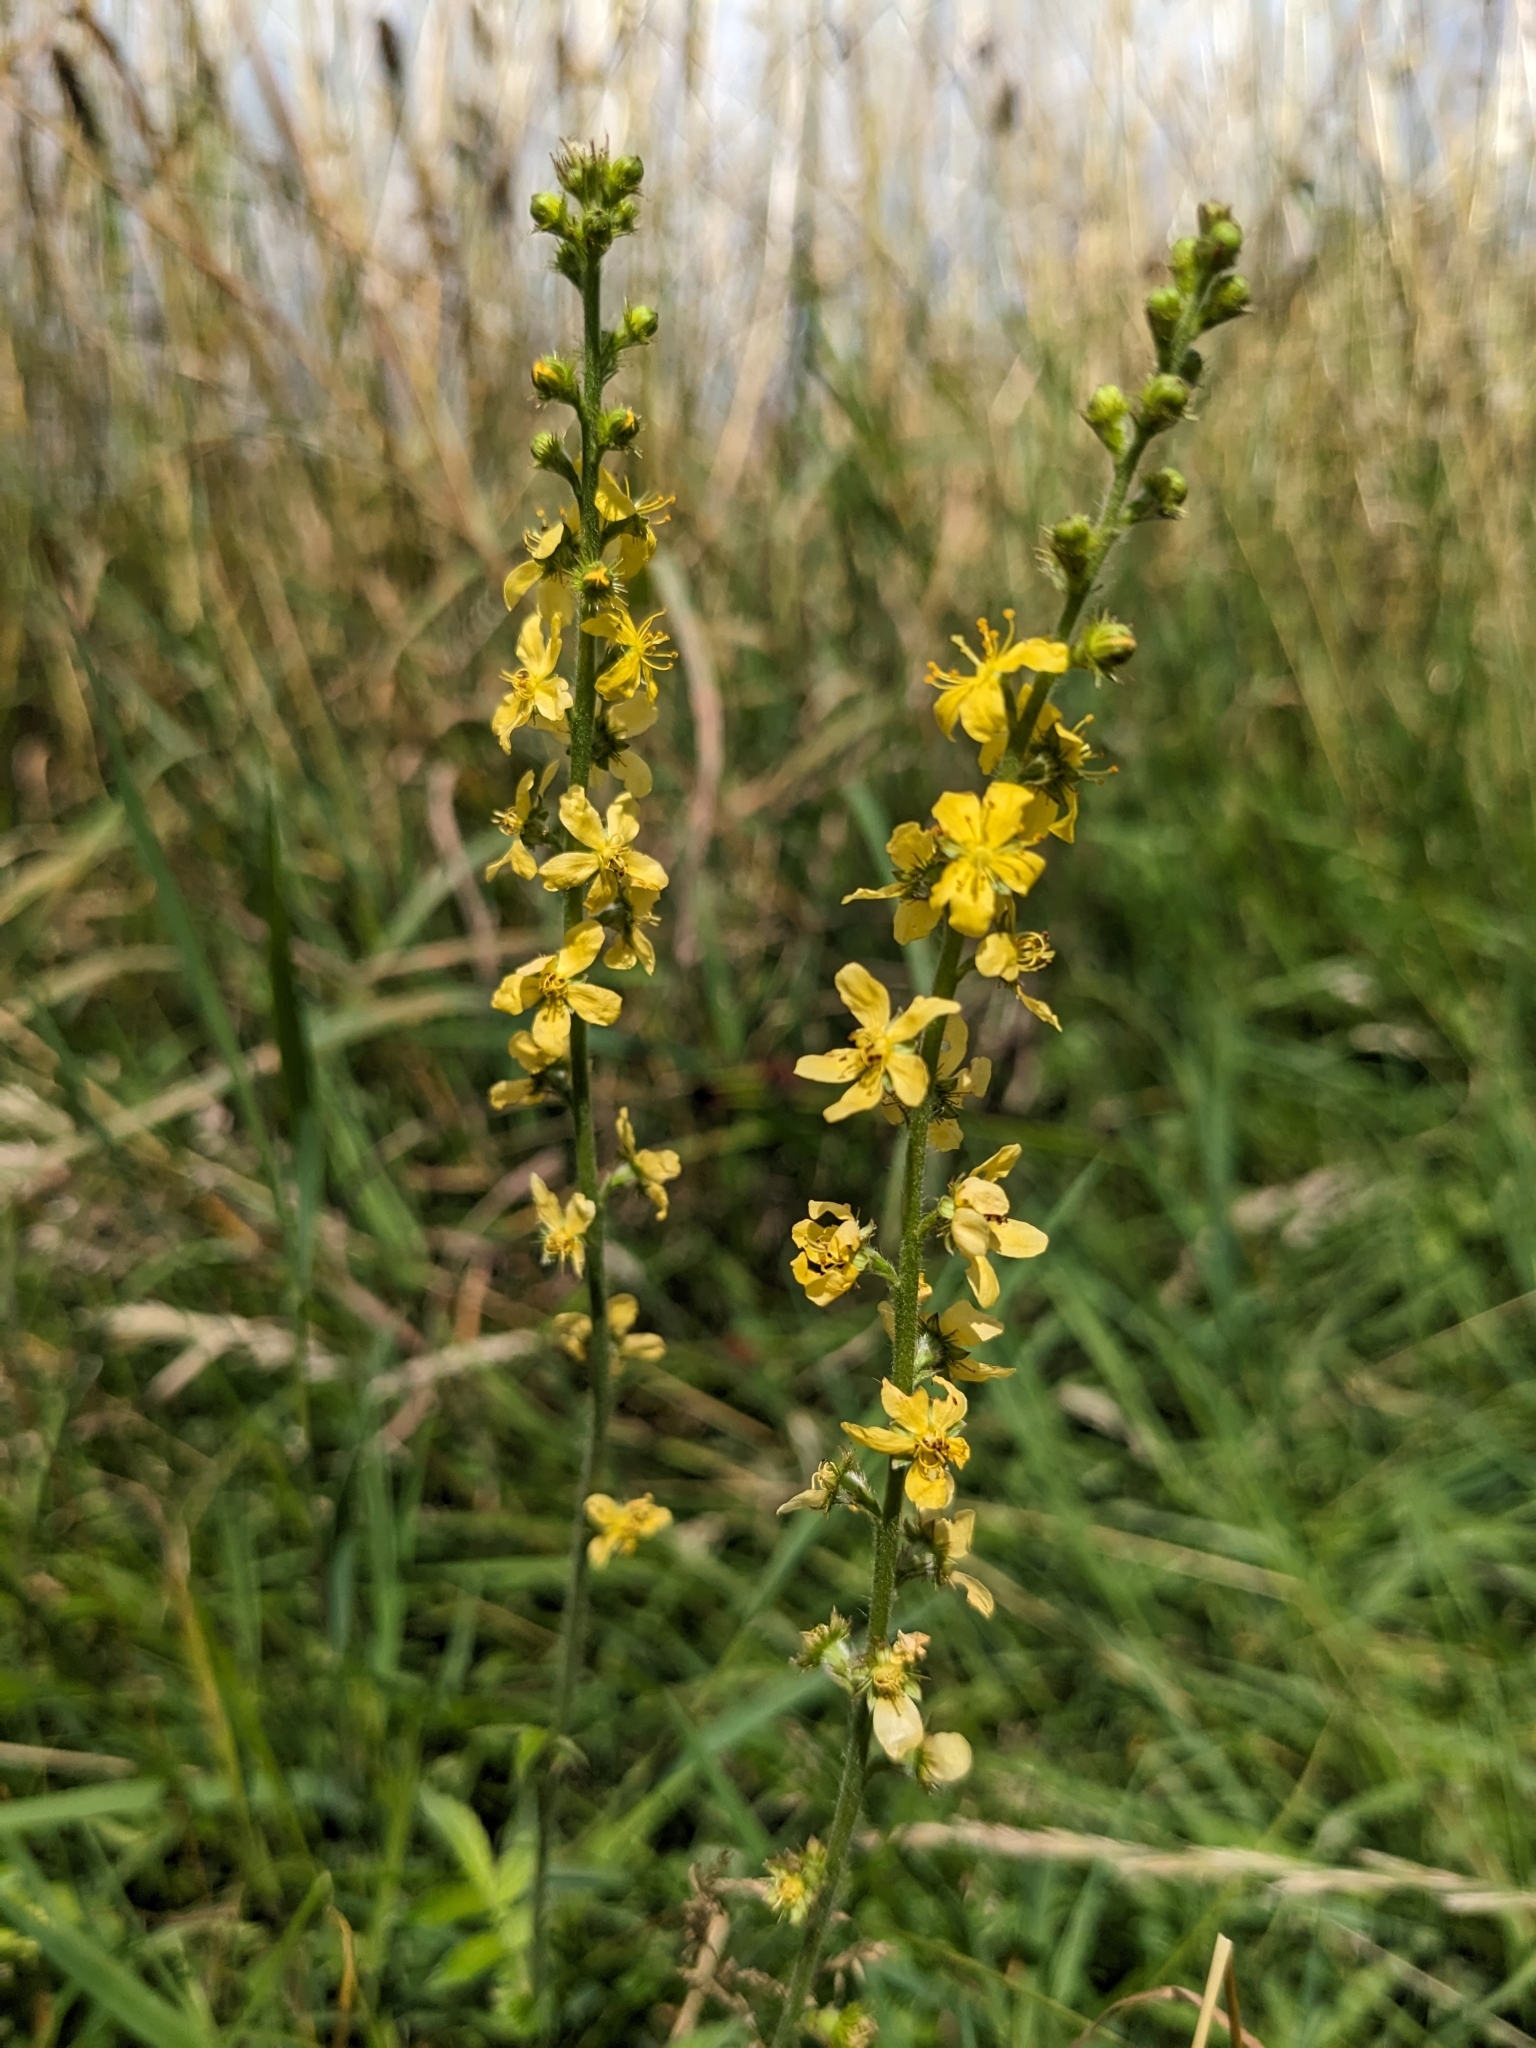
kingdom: Plantae
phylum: Tracheophyta
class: Magnoliopsida
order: Rosales
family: Rosaceae
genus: Agrimonia
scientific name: Agrimonia eupatoria
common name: Agrimony
